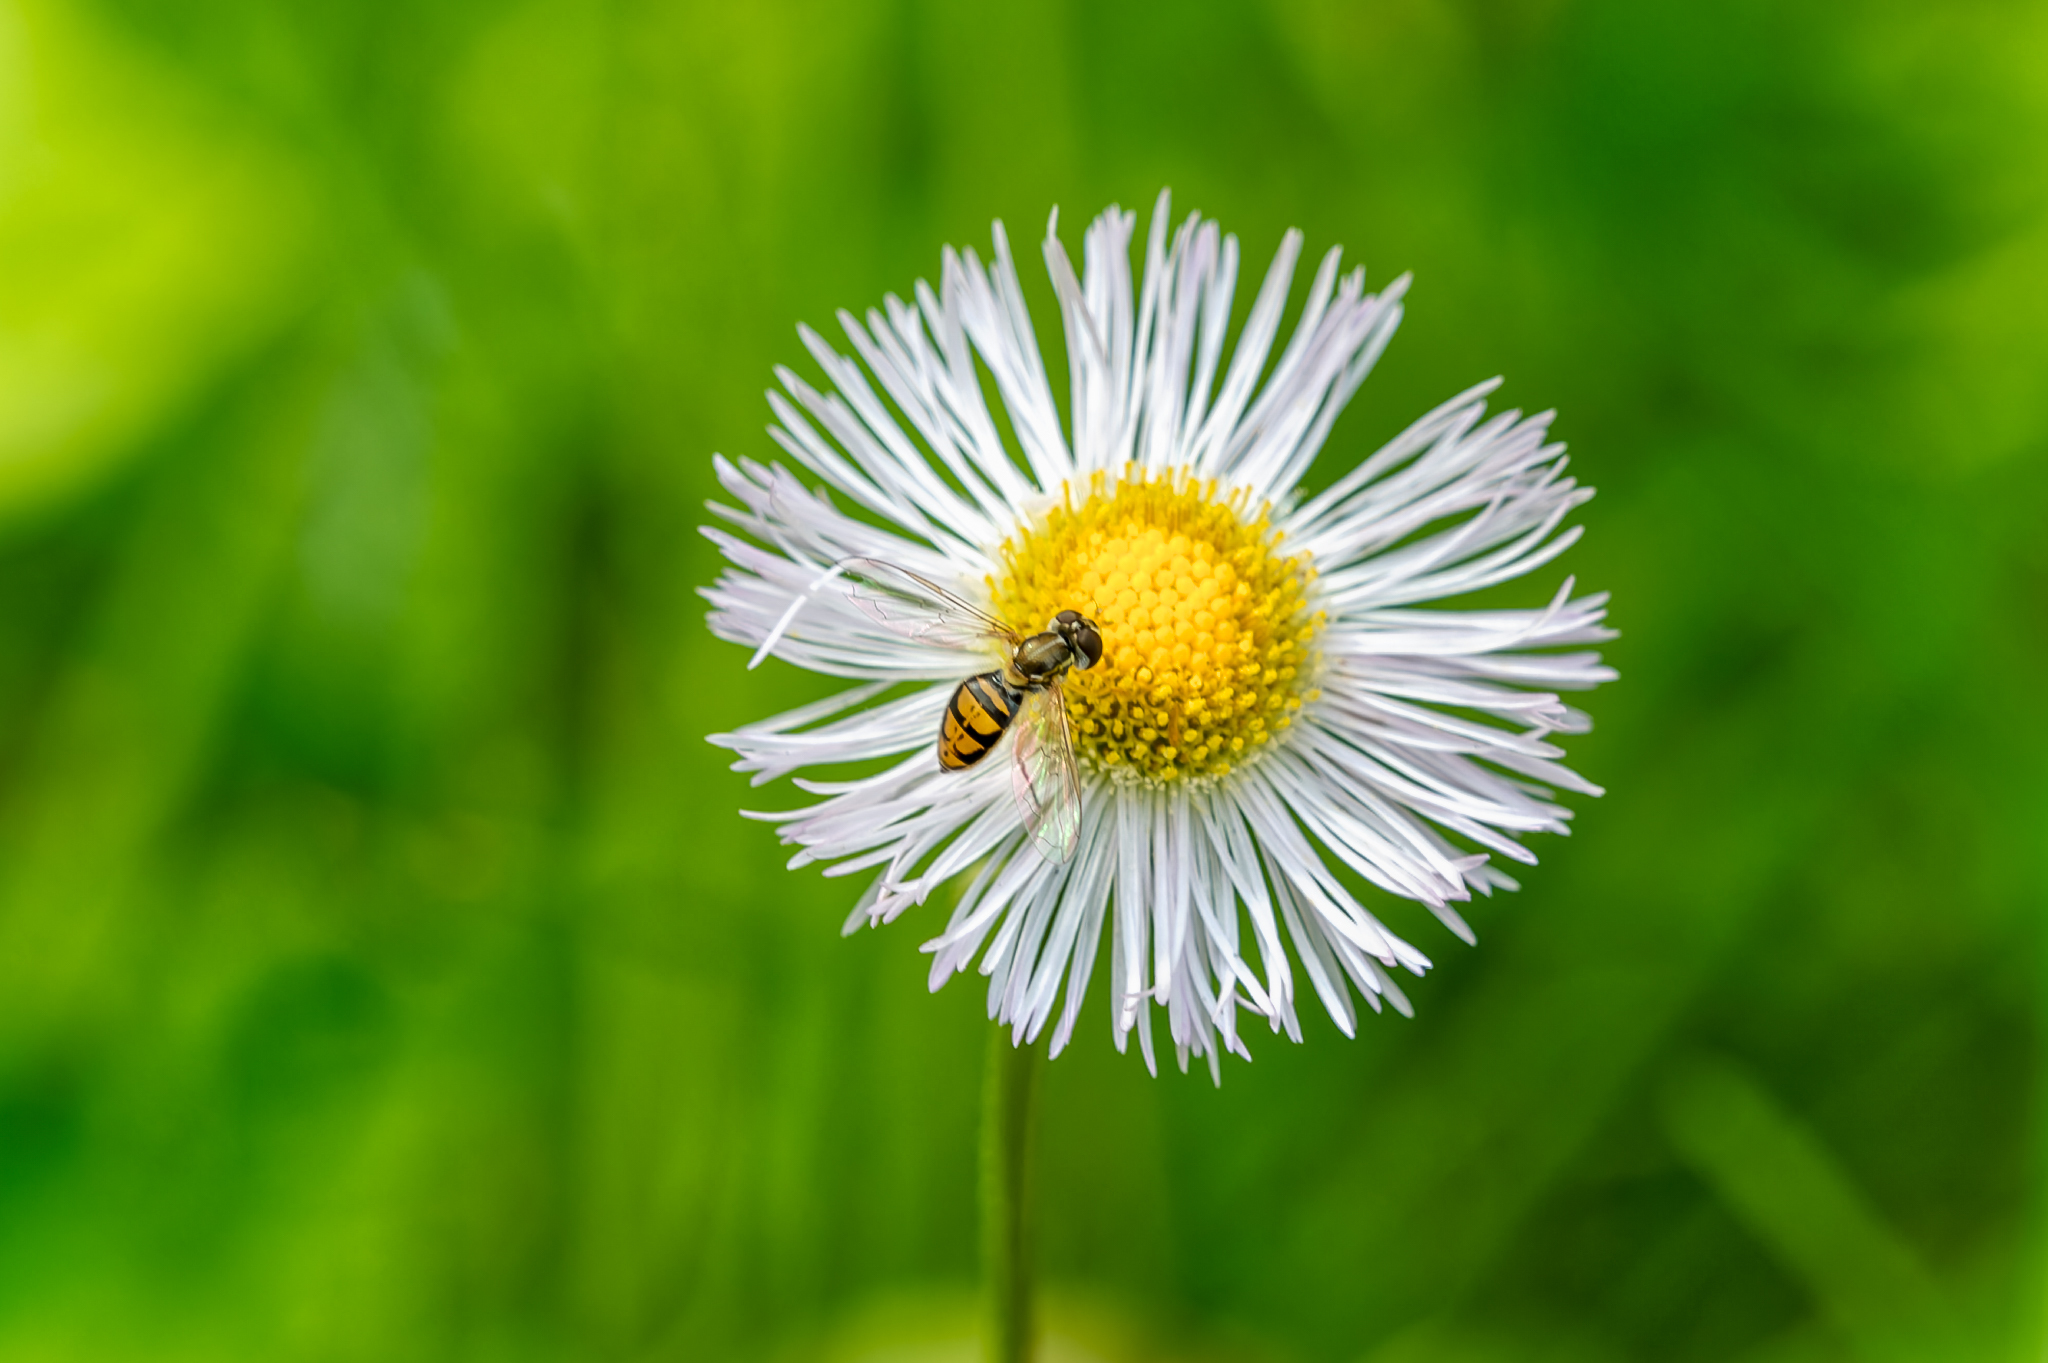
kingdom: Animalia
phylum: Arthropoda
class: Insecta
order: Diptera
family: Syrphidae
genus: Toxomerus
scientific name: Toxomerus marginatus
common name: Syrphid fly
